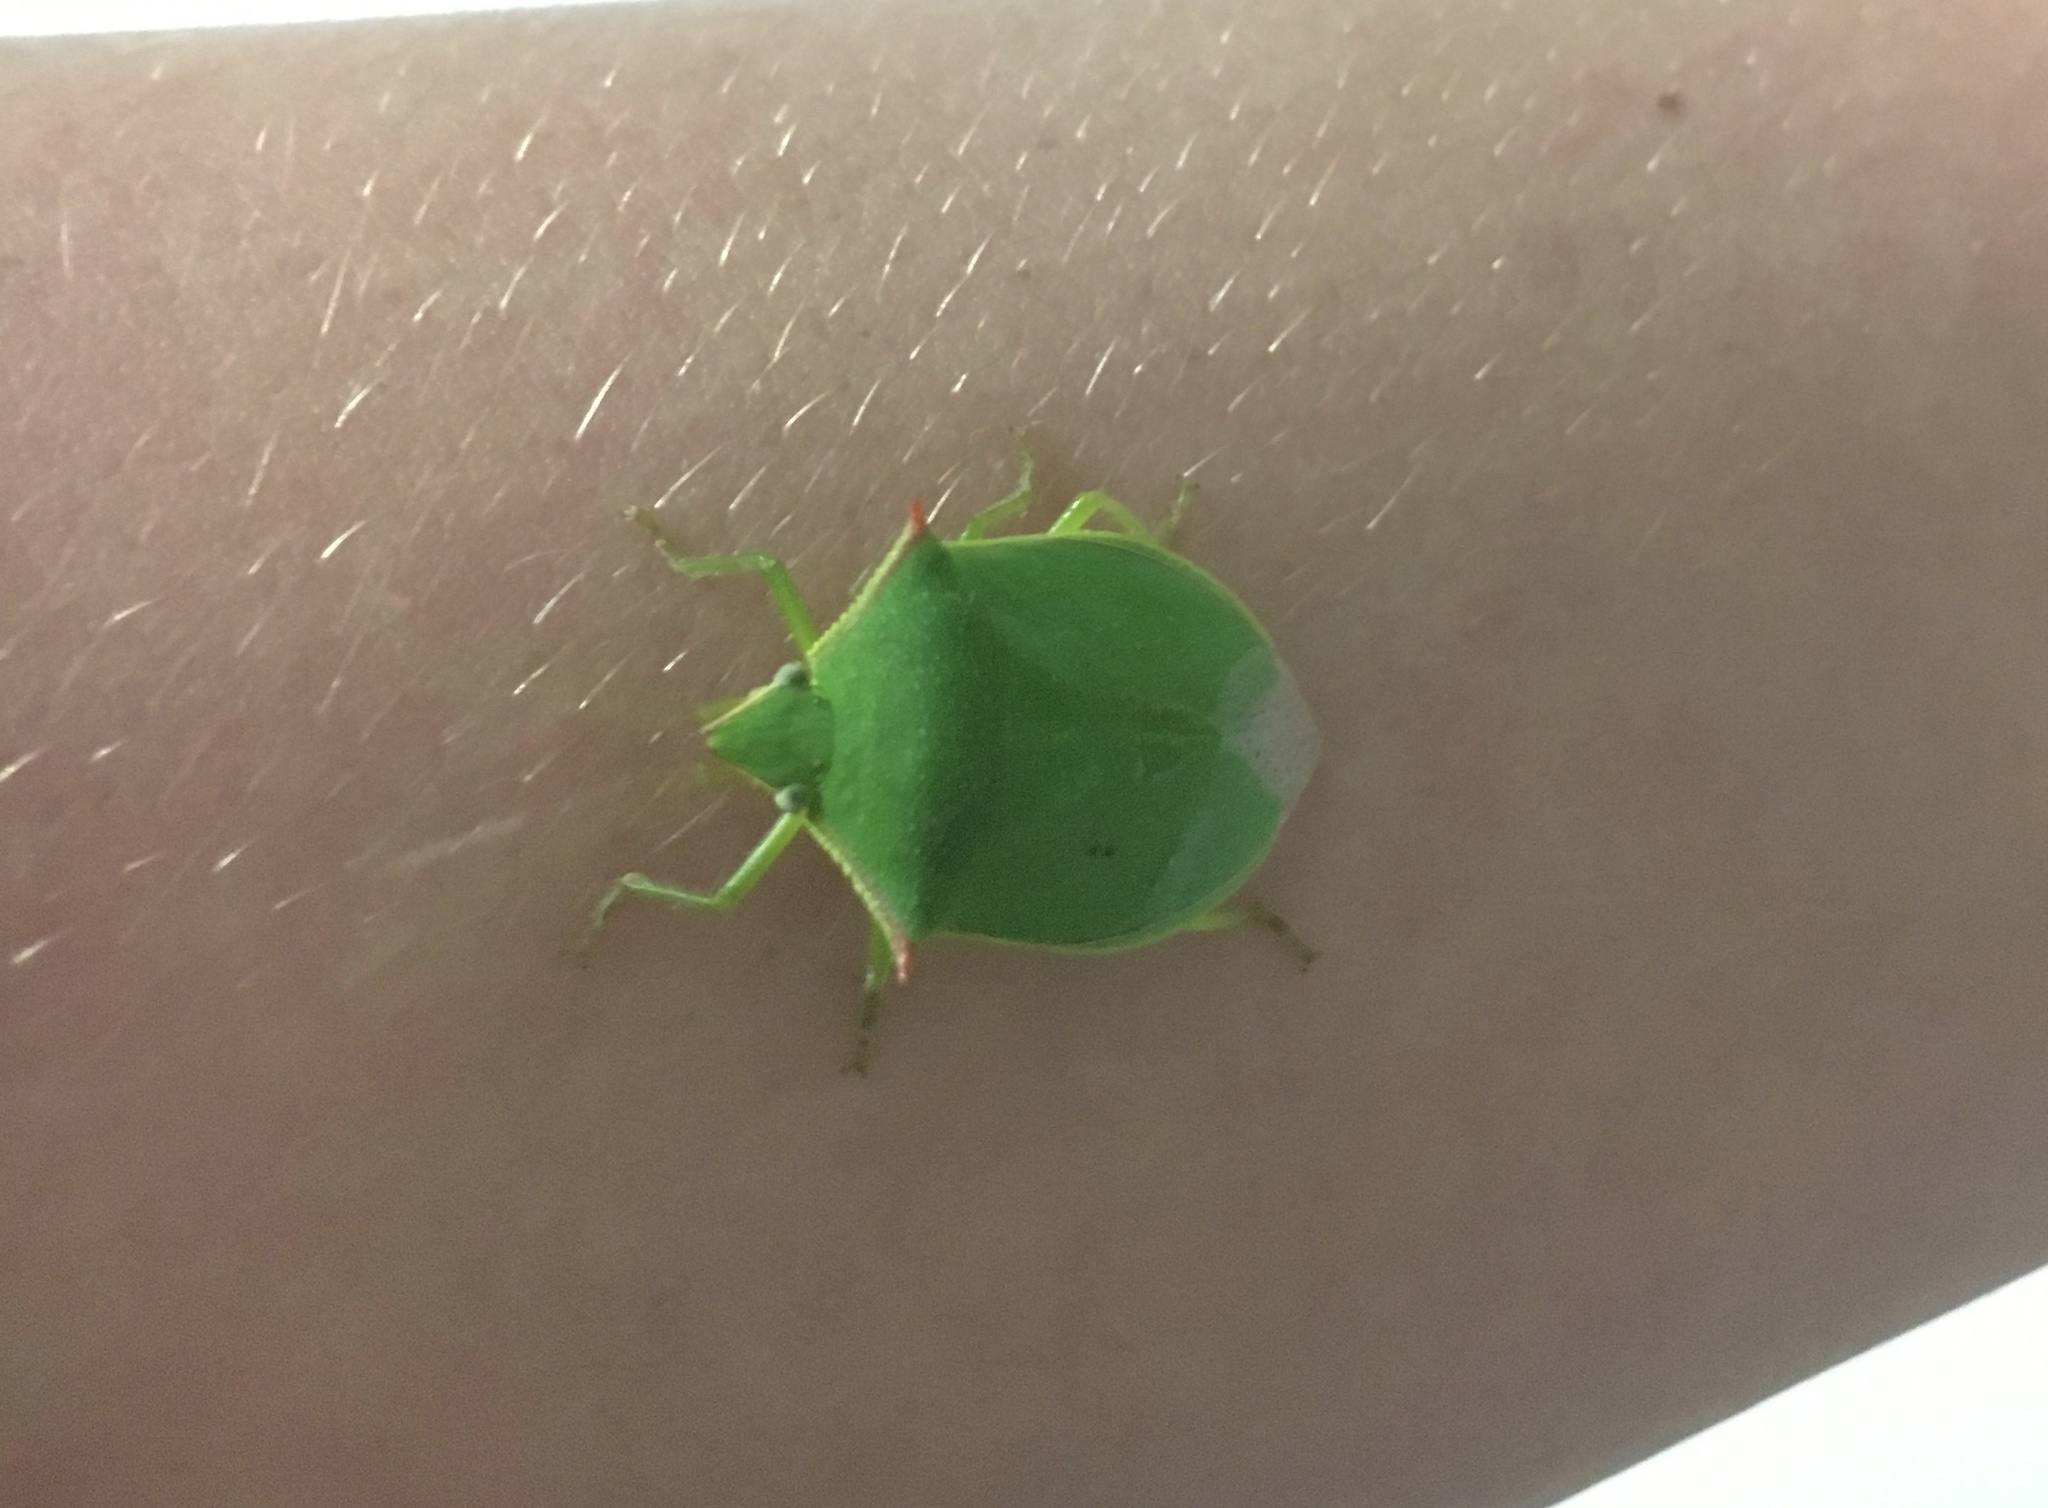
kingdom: Animalia
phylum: Arthropoda
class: Insecta
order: Hemiptera
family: Pentatomidae
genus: Loxa
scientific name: Loxa flavicollis
